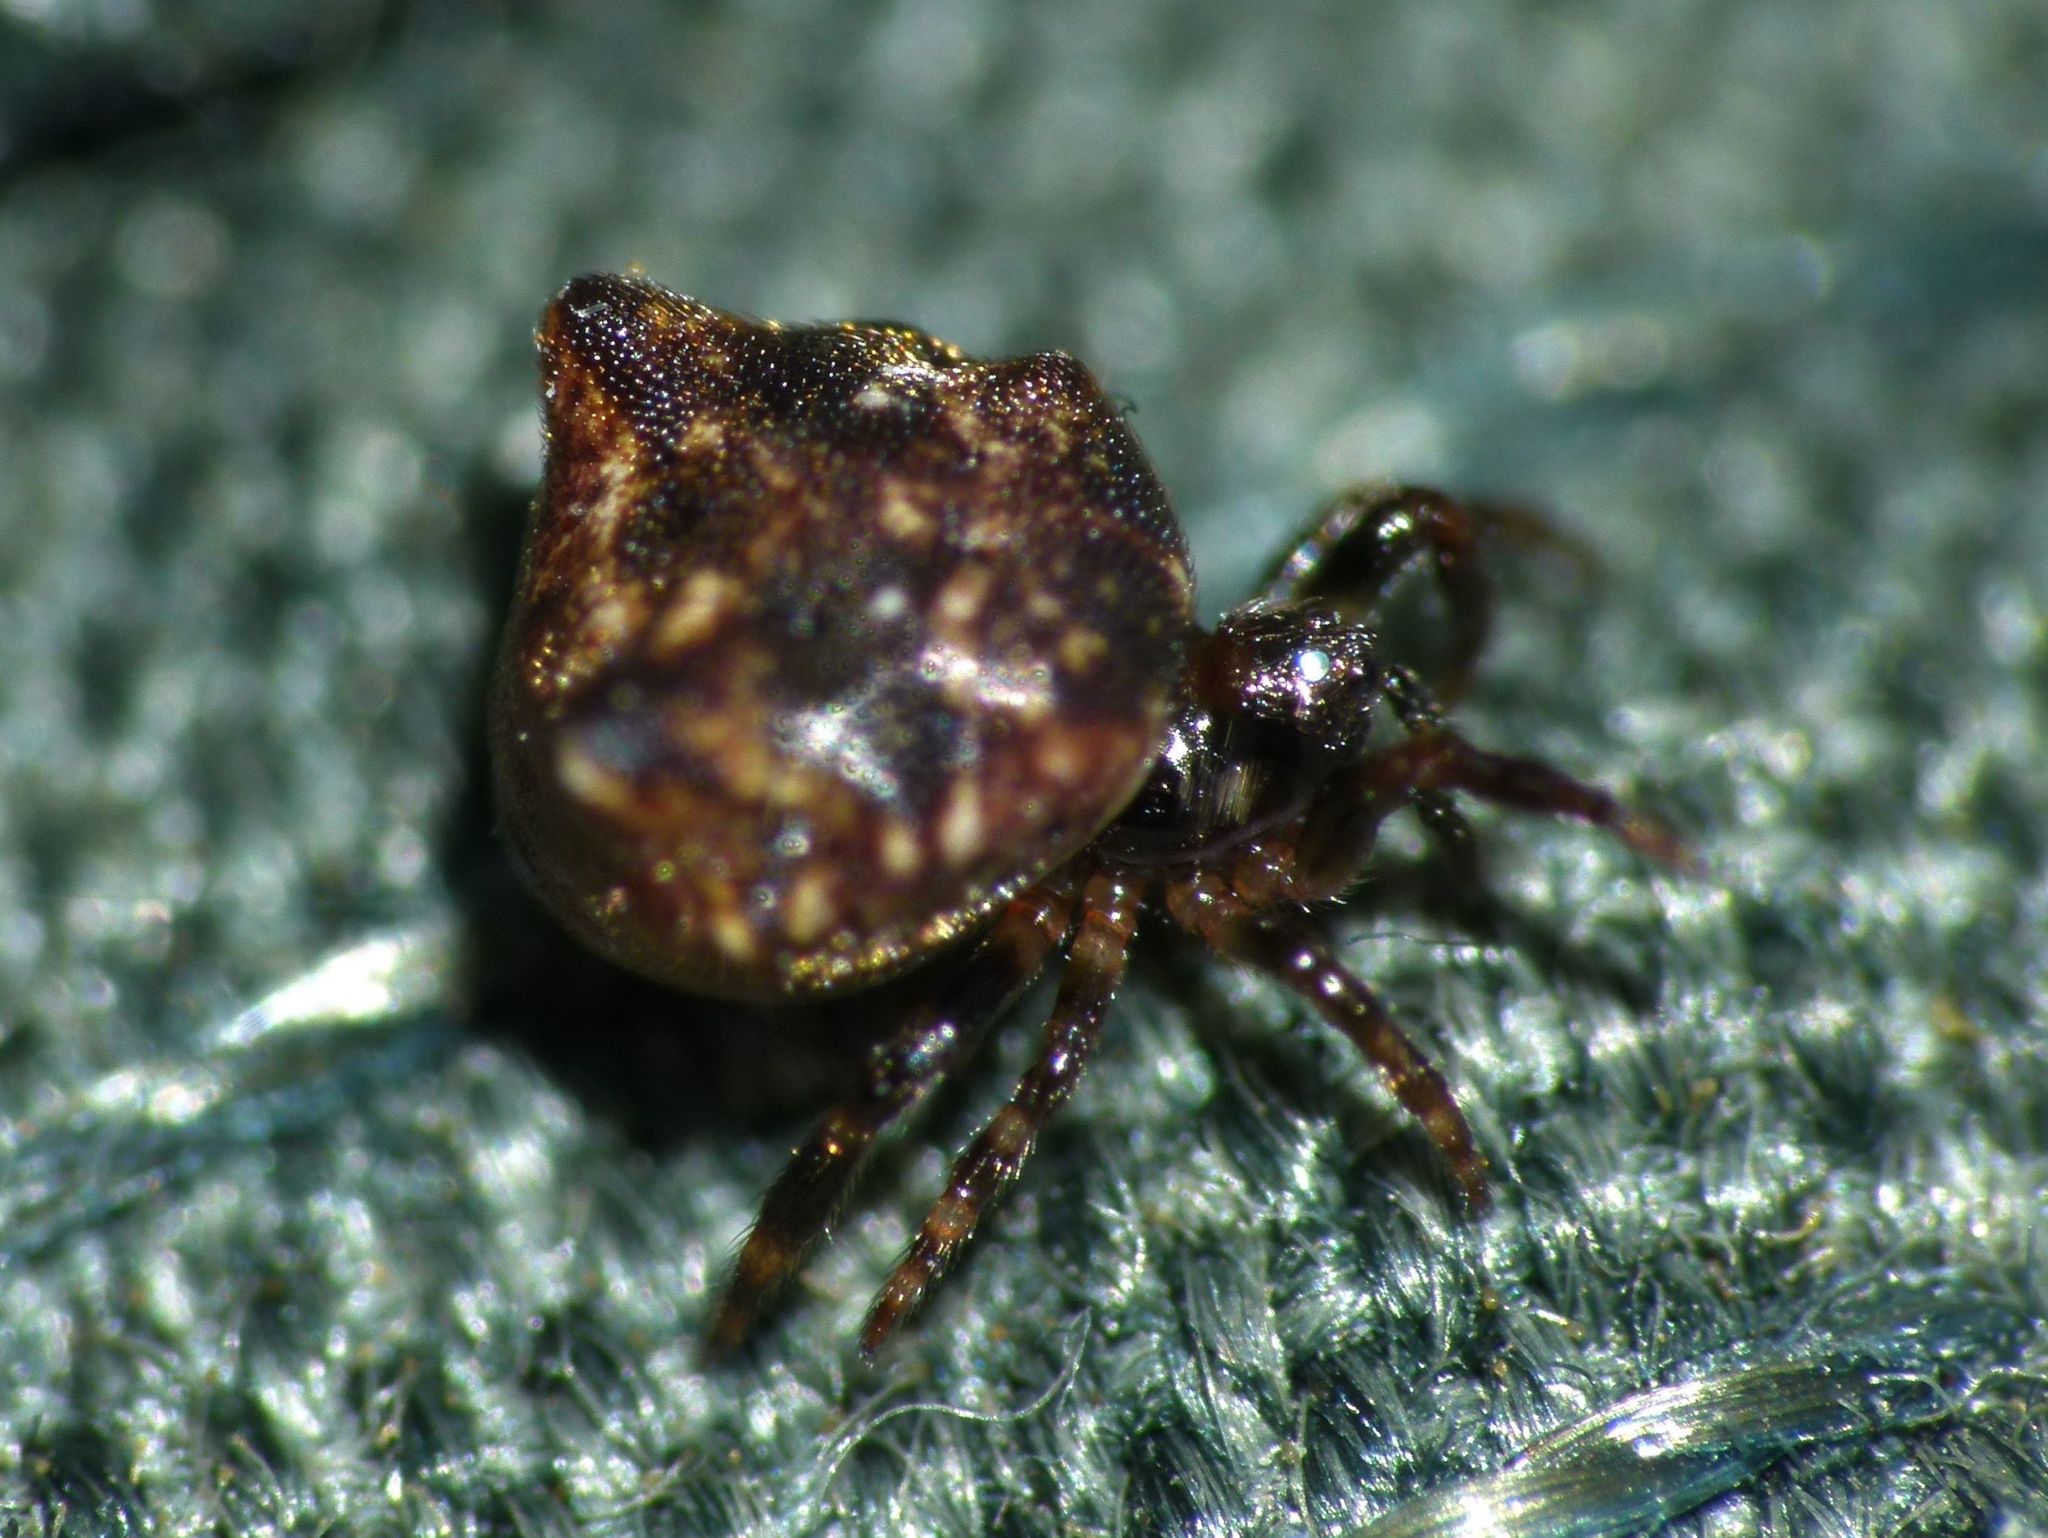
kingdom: Animalia
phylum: Arthropoda
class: Arachnida
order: Araneae
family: Theridiidae
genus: Phoroncidia
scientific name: Phoroncidia quadrata
